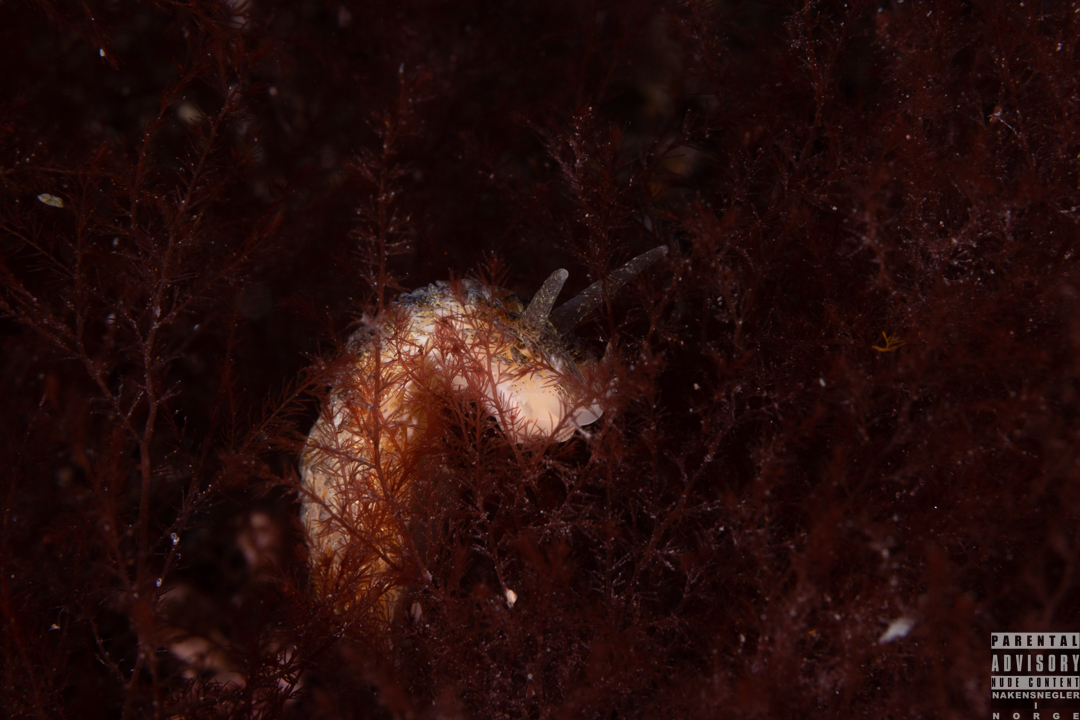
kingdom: Animalia
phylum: Mollusca
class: Gastropoda
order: Nudibranchia
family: Aeolidiidae
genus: Aeolidia
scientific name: Aeolidia papillosa
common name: Common grey sea slug
